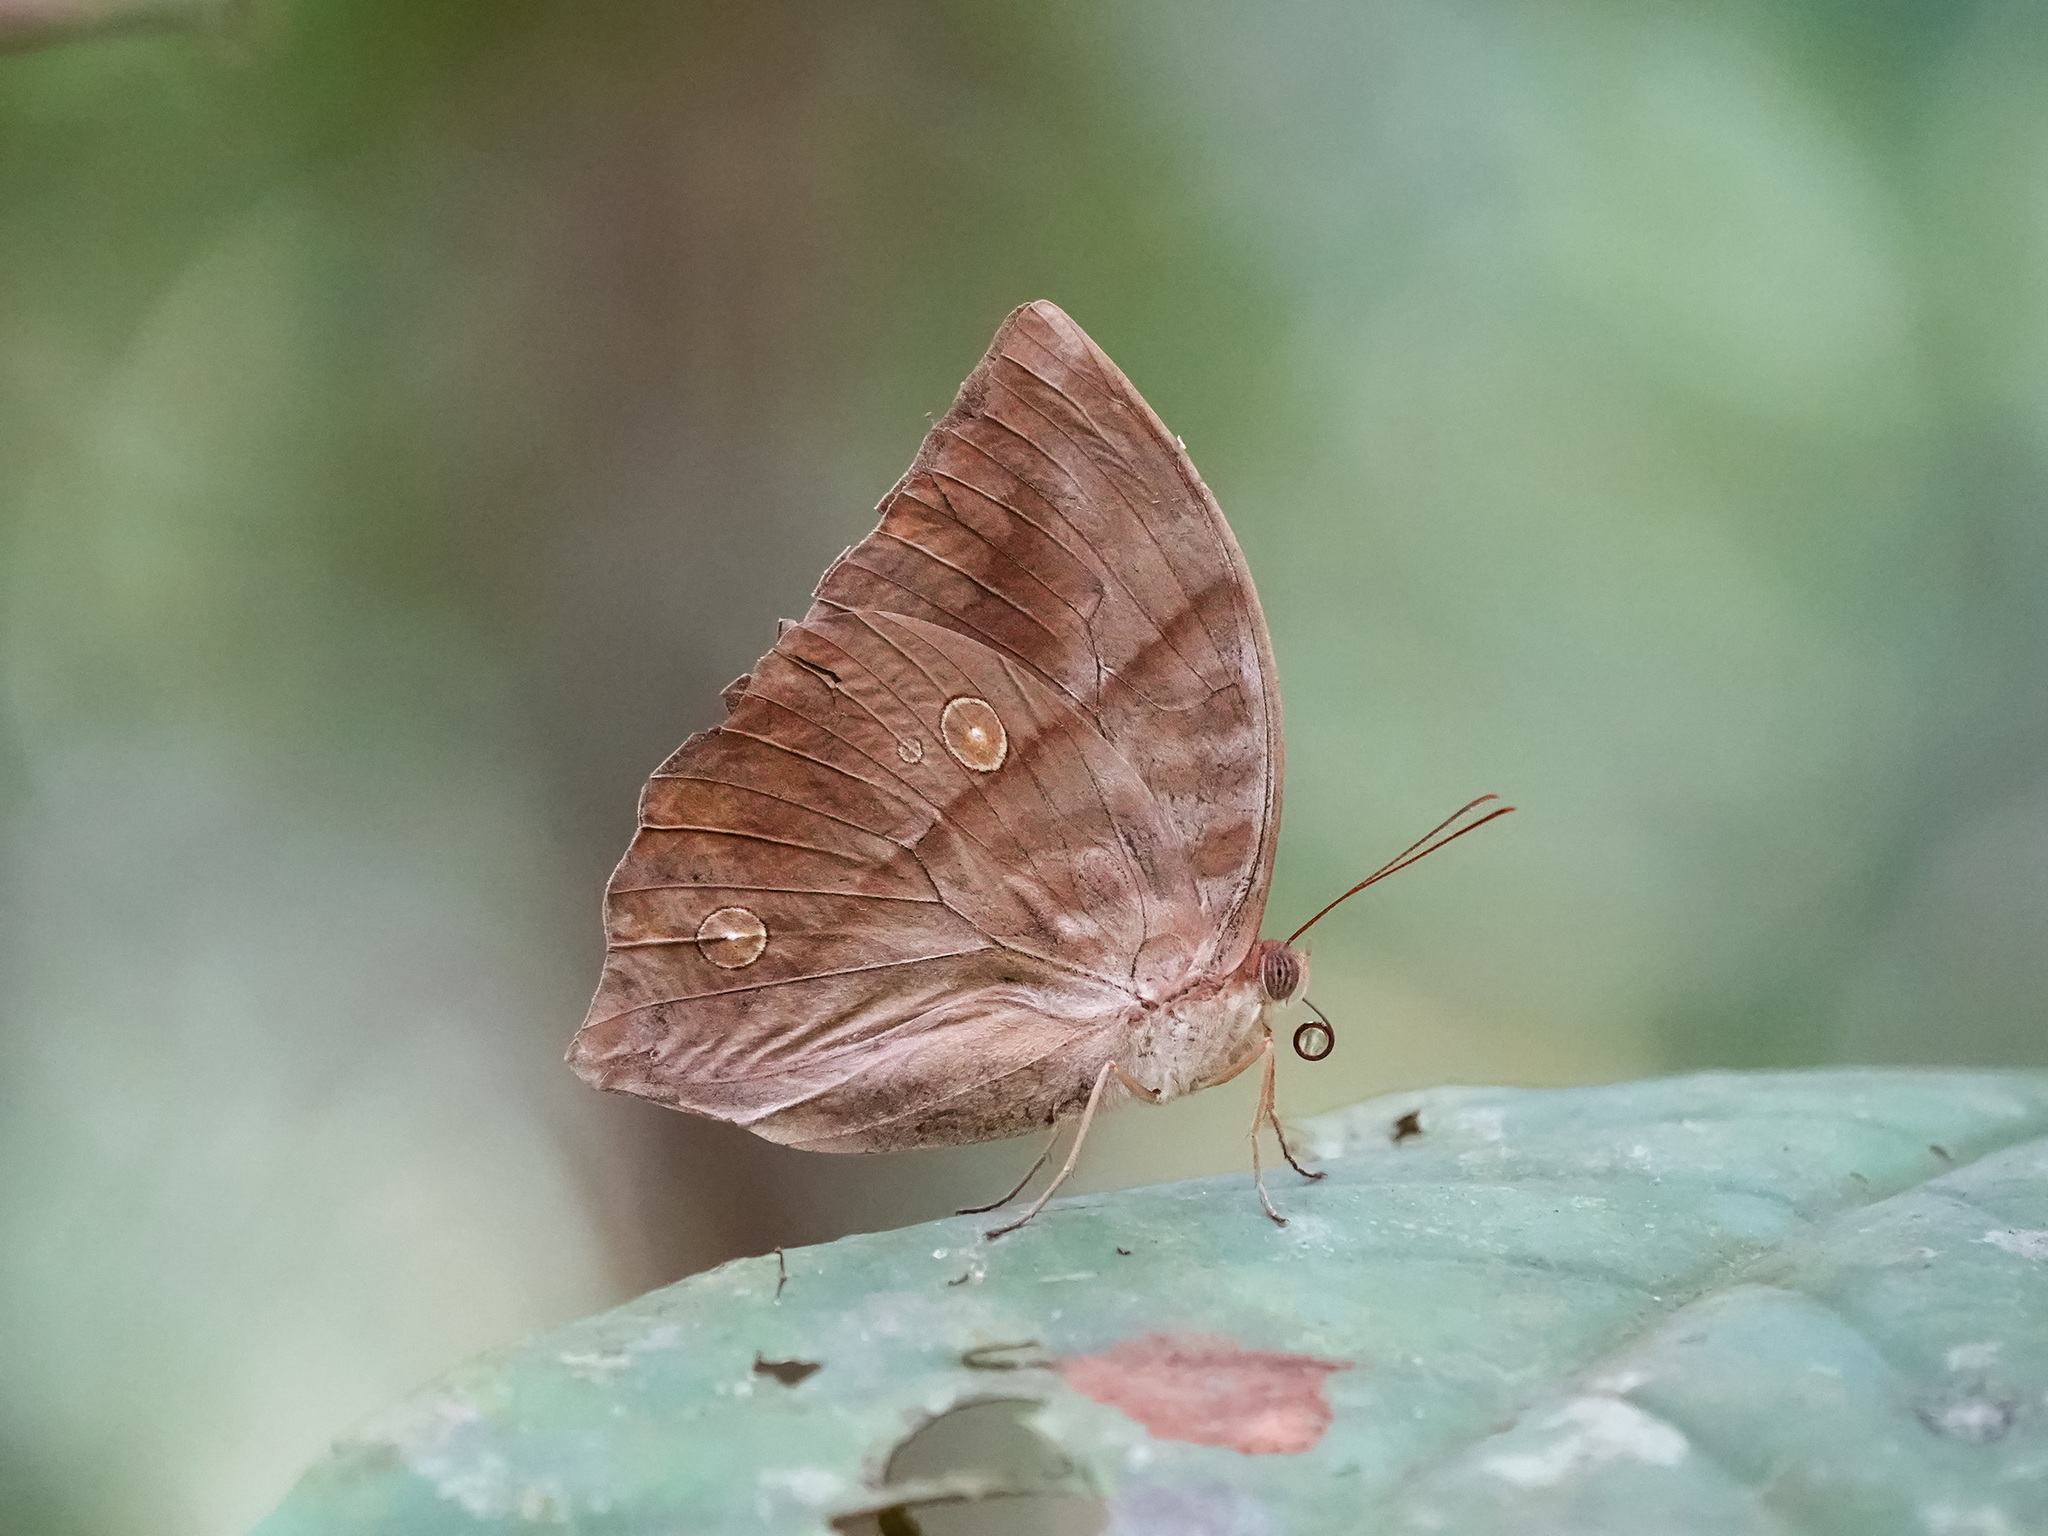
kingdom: Animalia
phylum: Arthropoda
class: Insecta
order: Lepidoptera
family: Nymphalidae
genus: Zeuxidia
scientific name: Zeuxidia amethysta
